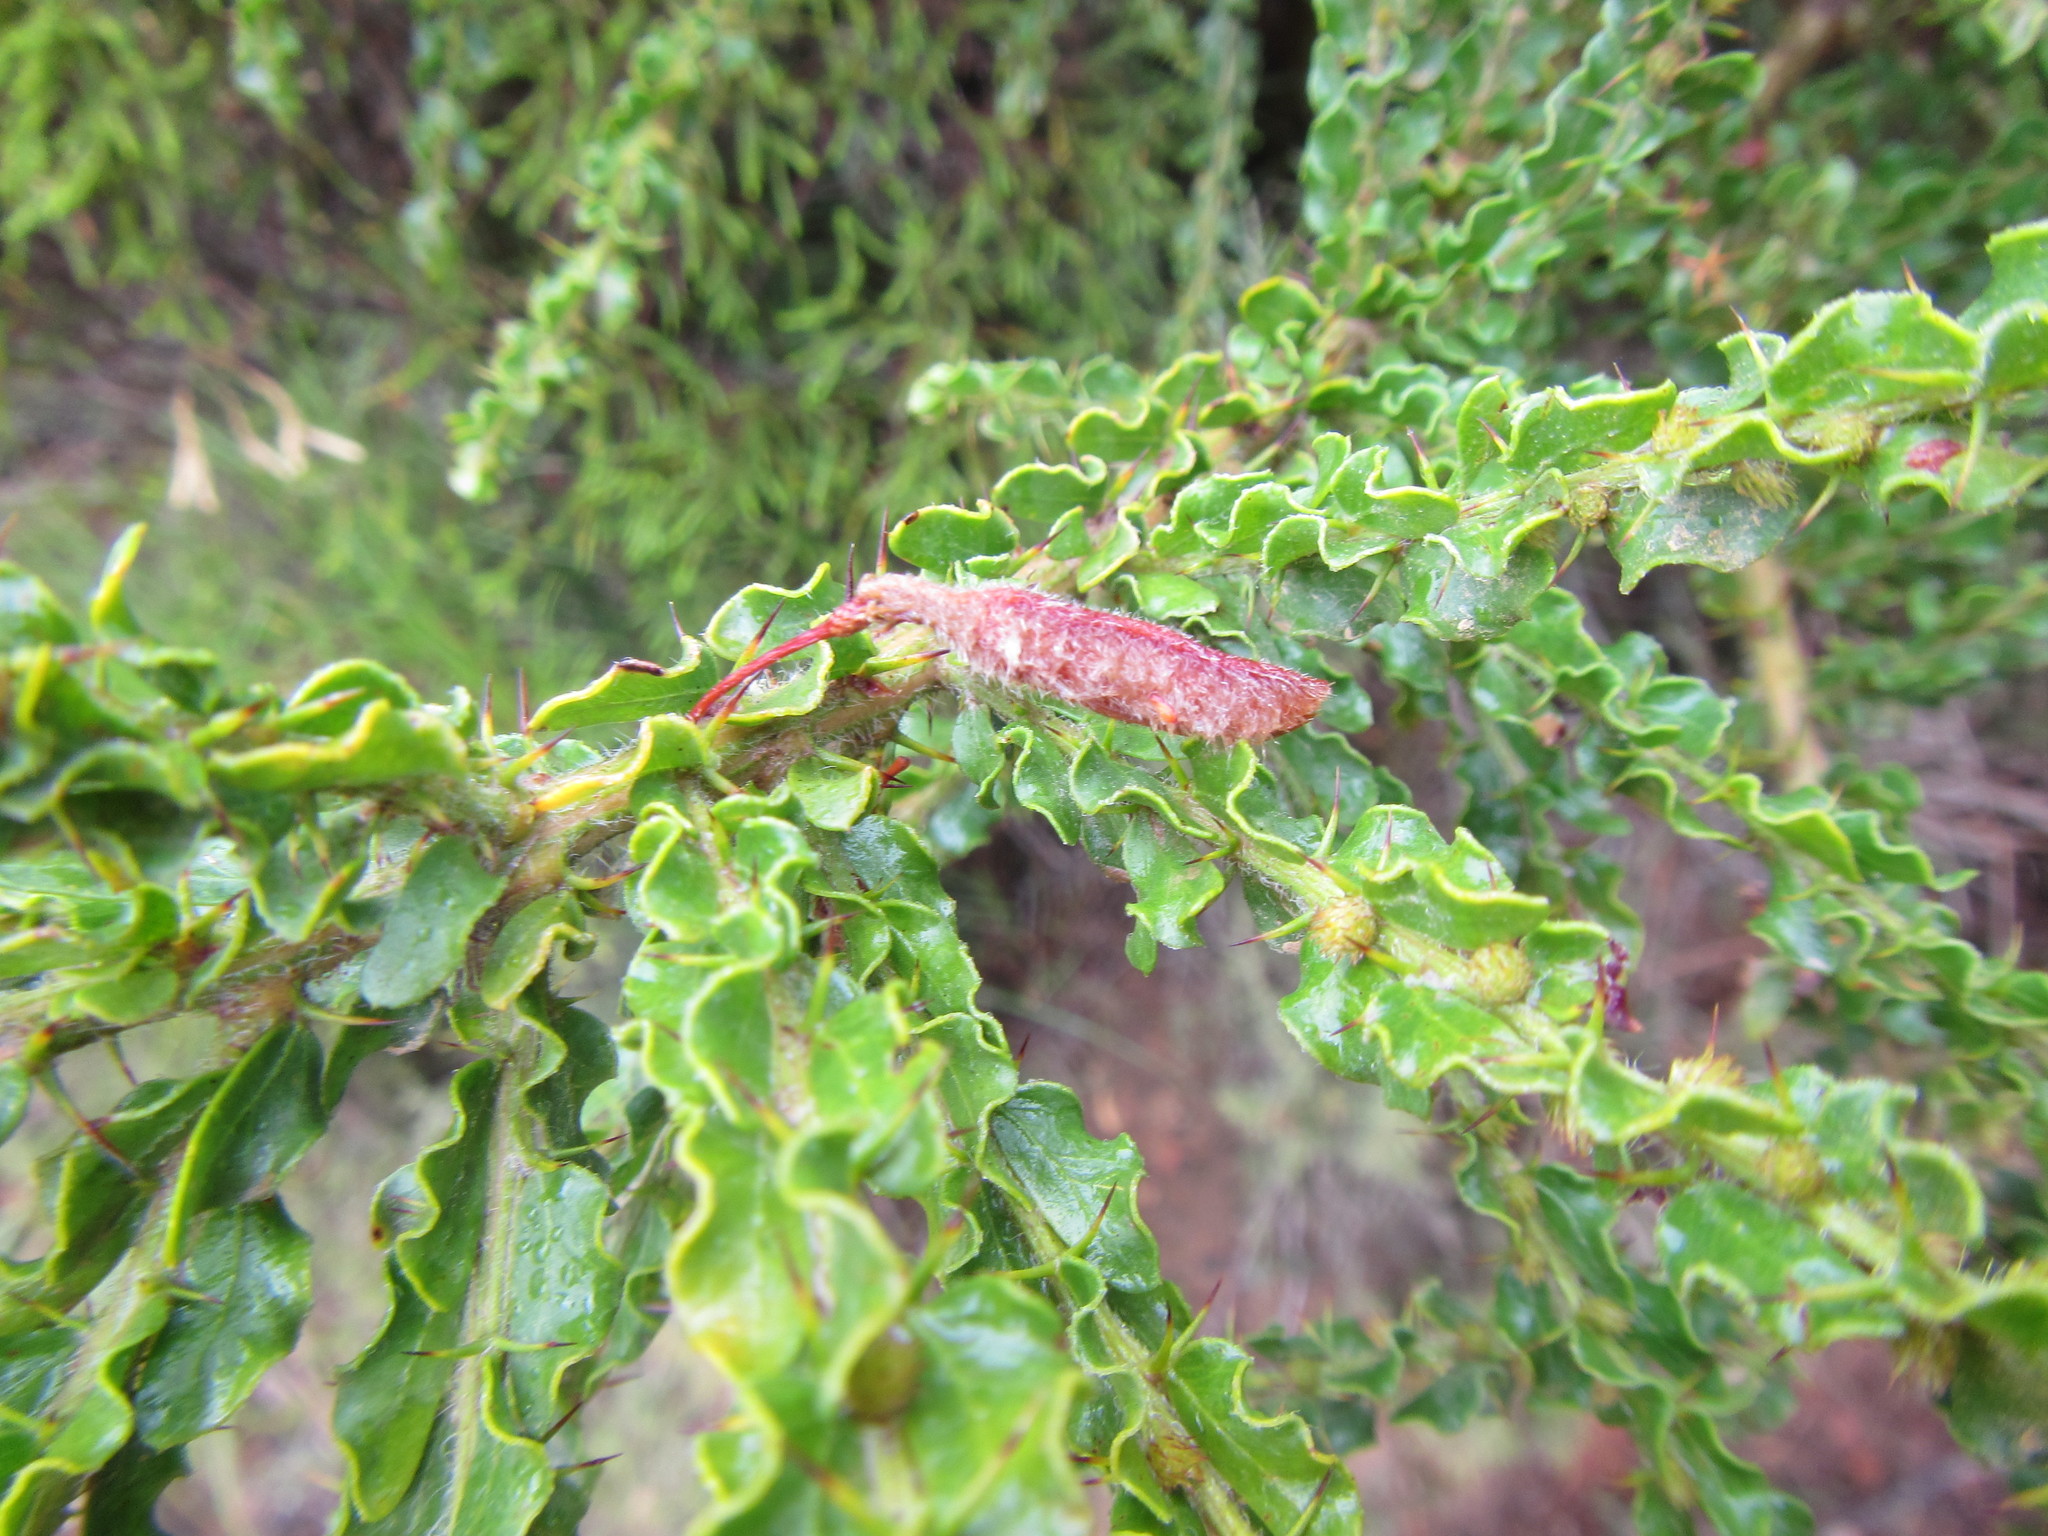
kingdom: Plantae
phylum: Tracheophyta
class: Magnoliopsida
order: Fabales
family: Fabaceae
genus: Acacia
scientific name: Acacia paradoxa
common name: Paradox acacia
